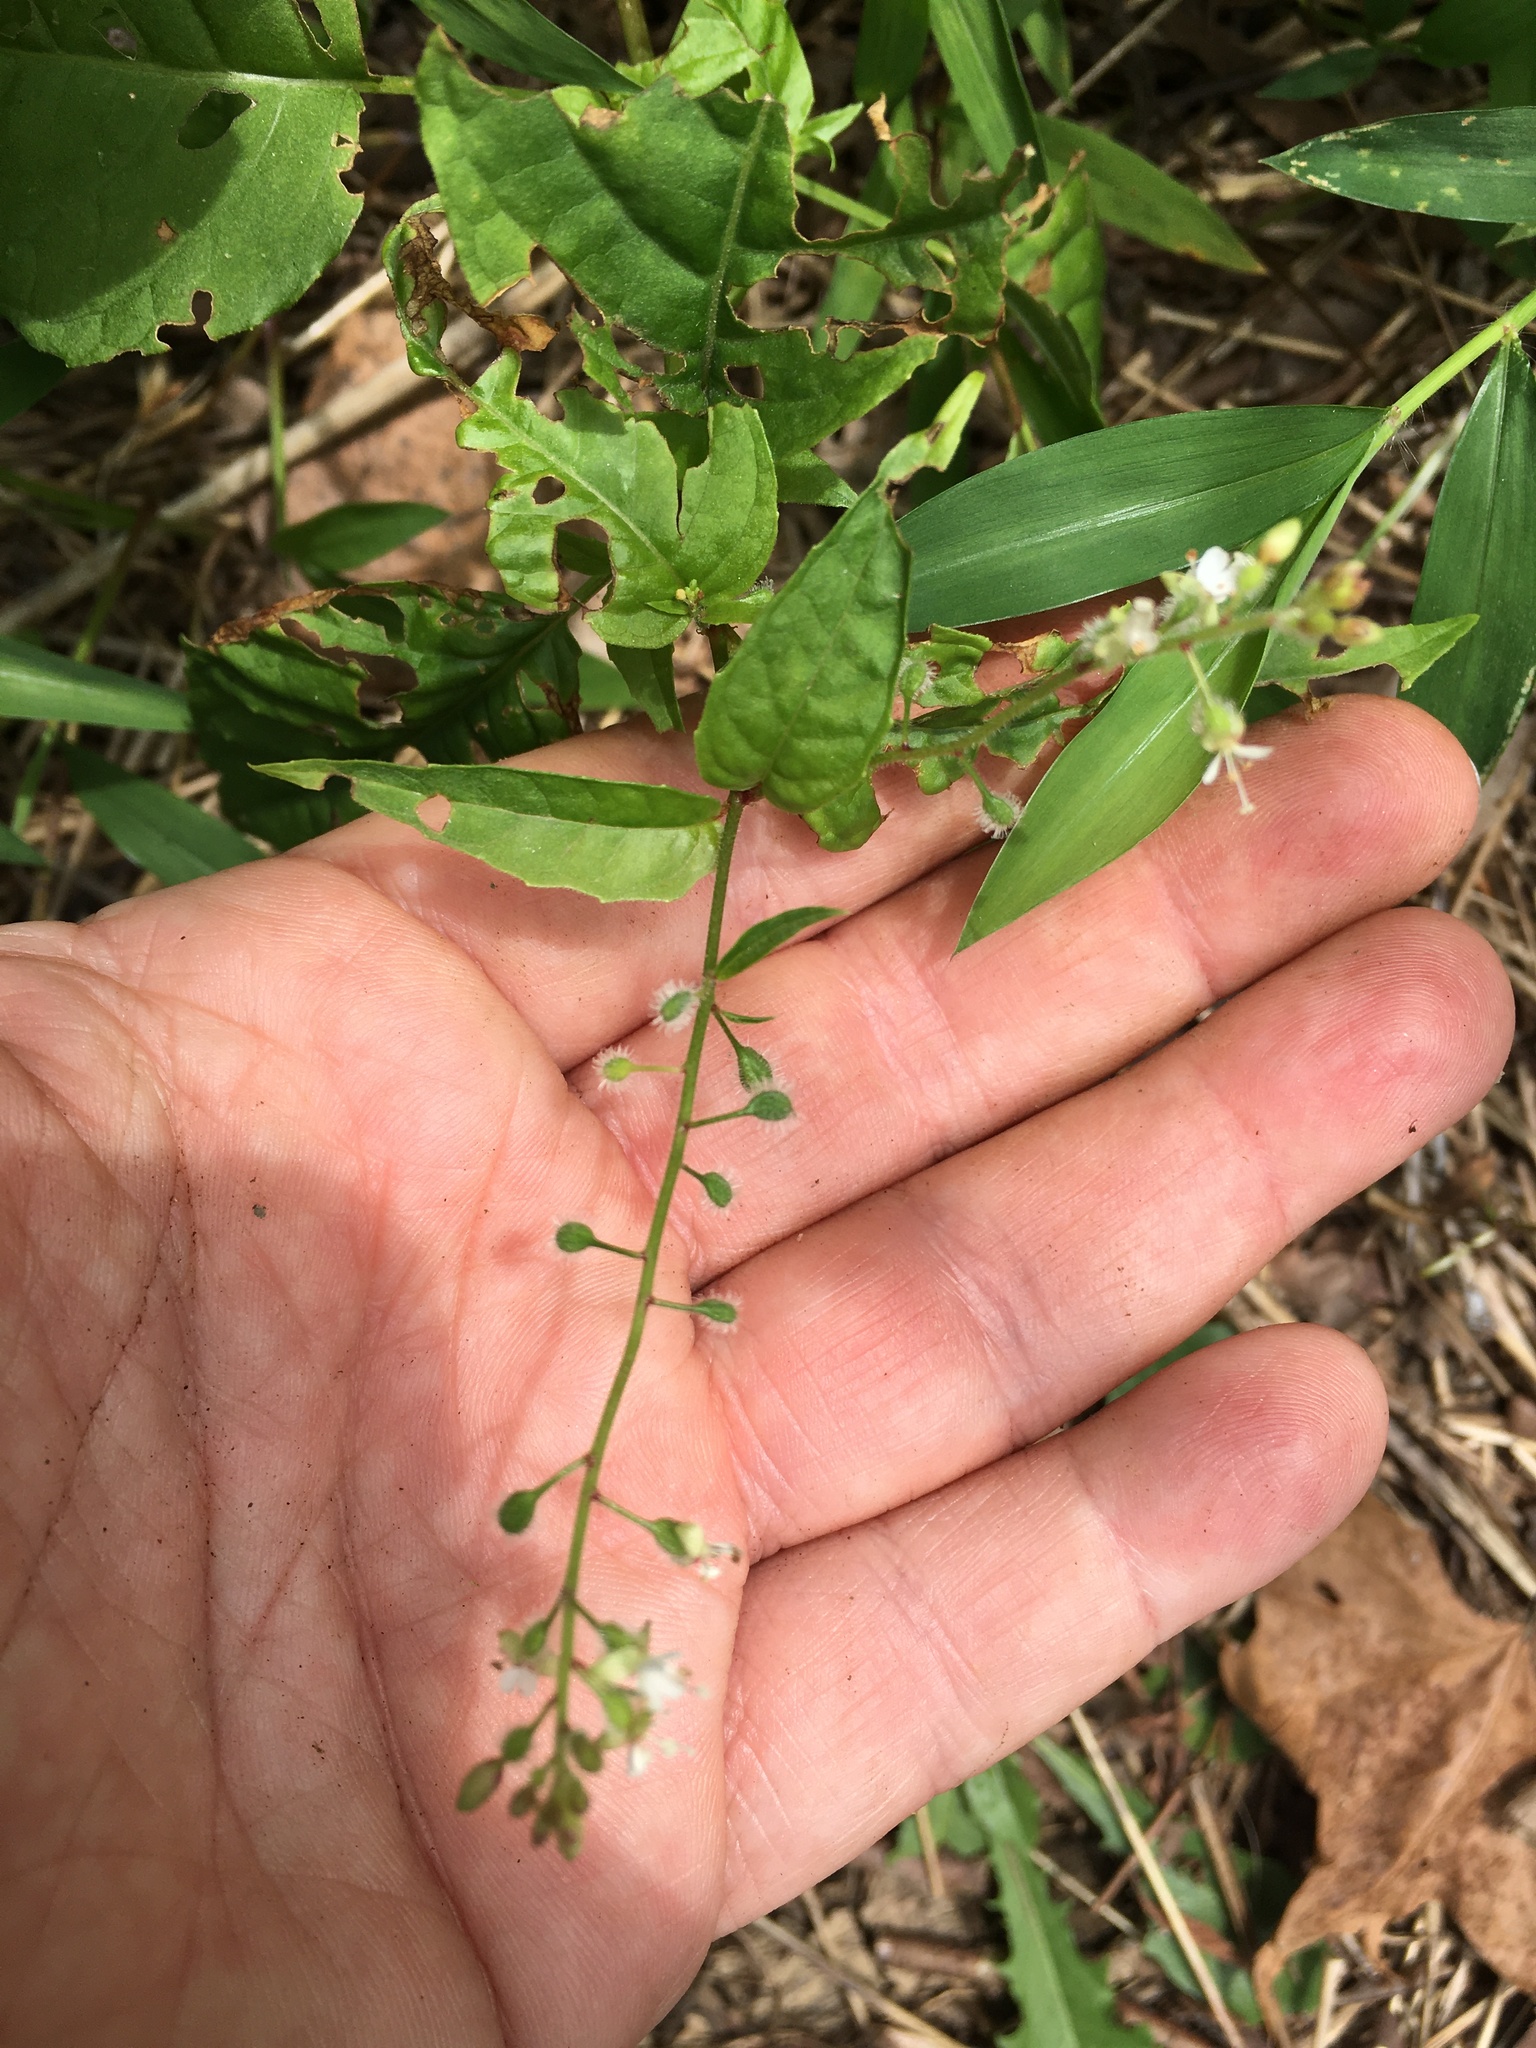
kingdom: Plantae
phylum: Tracheophyta
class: Magnoliopsida
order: Myrtales
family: Onagraceae
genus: Circaea
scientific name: Circaea canadensis
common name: Broad-leaved enchanter's nightshade
